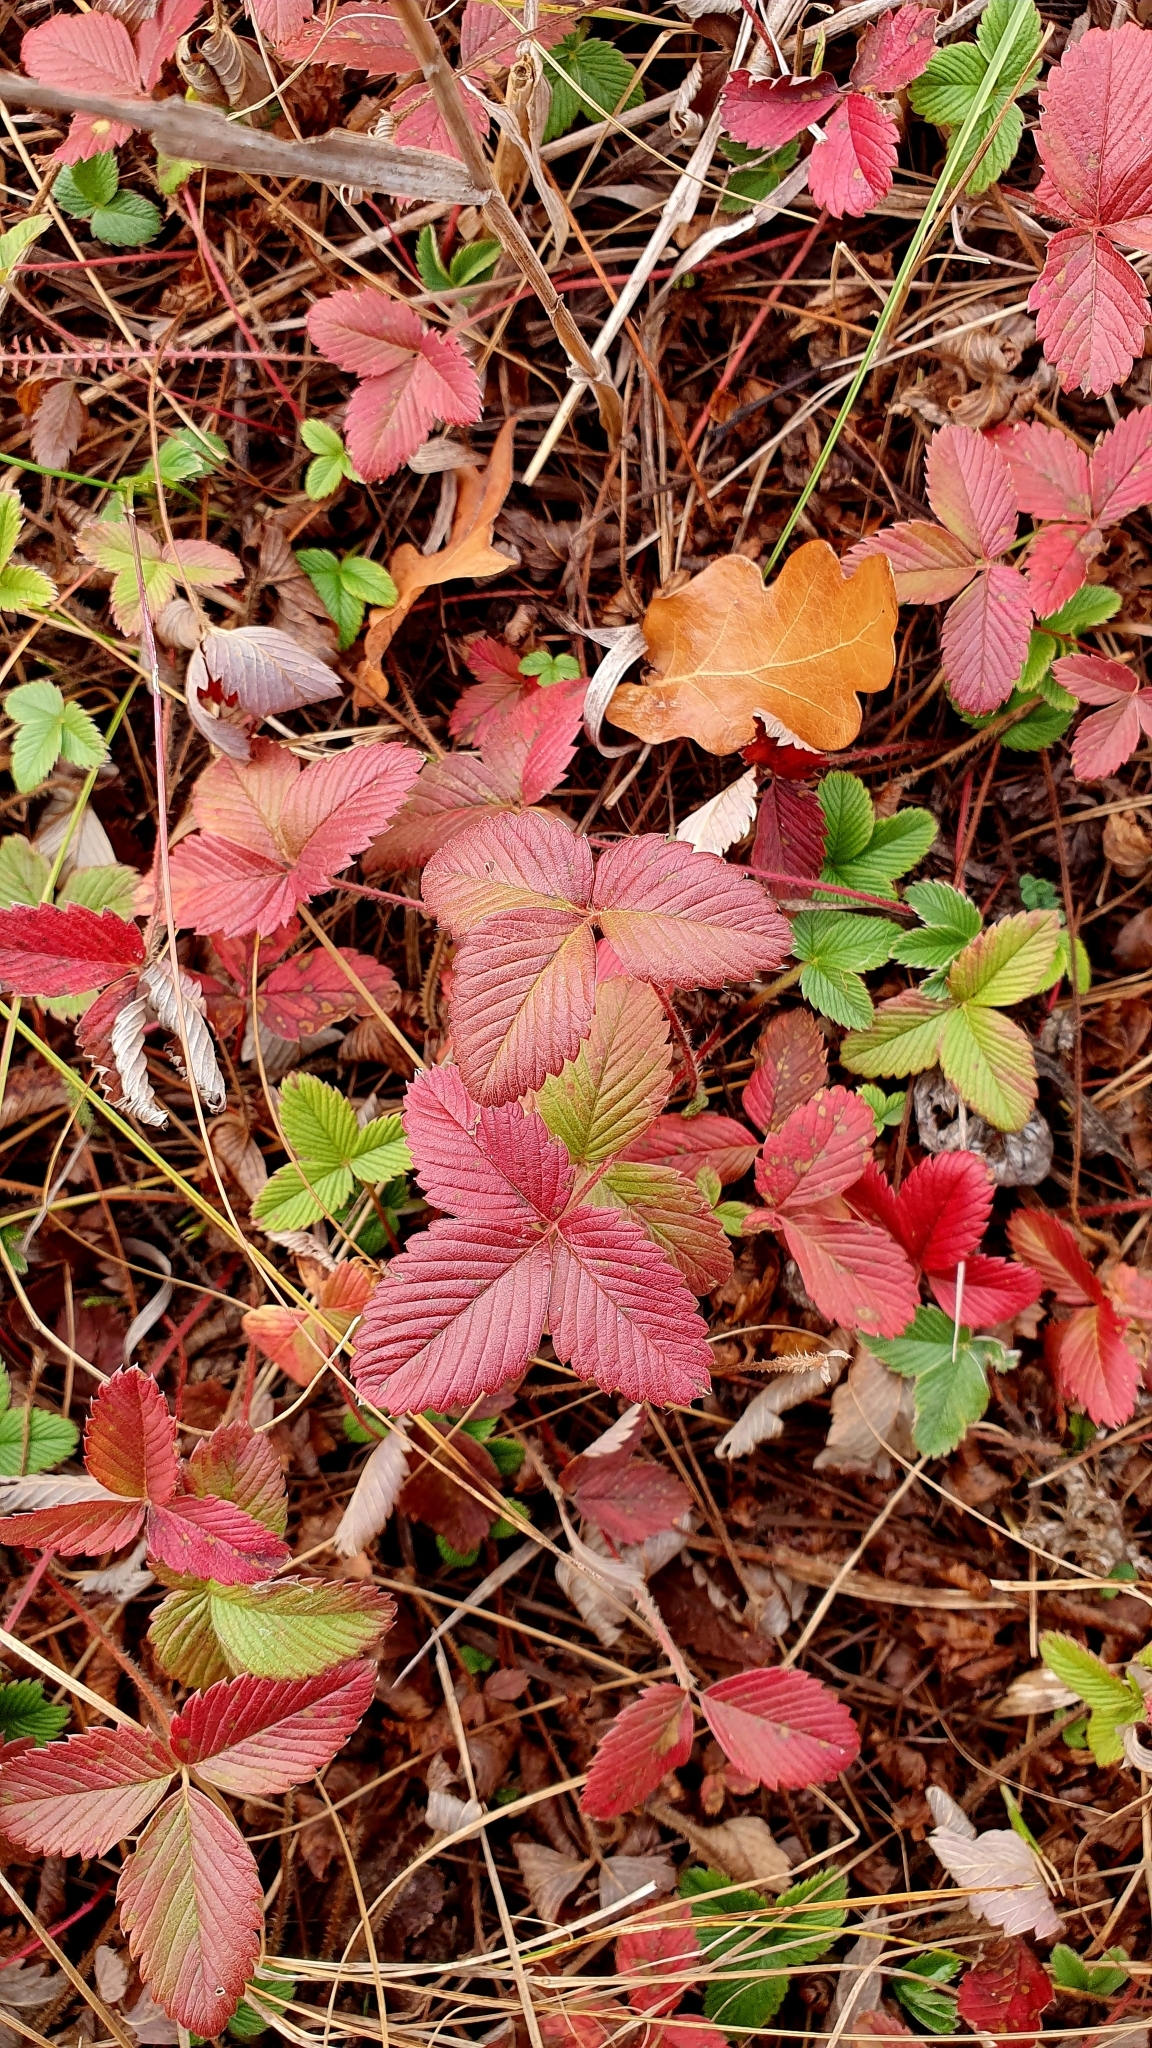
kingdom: Plantae
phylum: Tracheophyta
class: Magnoliopsida
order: Rosales
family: Rosaceae
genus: Fragaria
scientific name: Fragaria viridis
